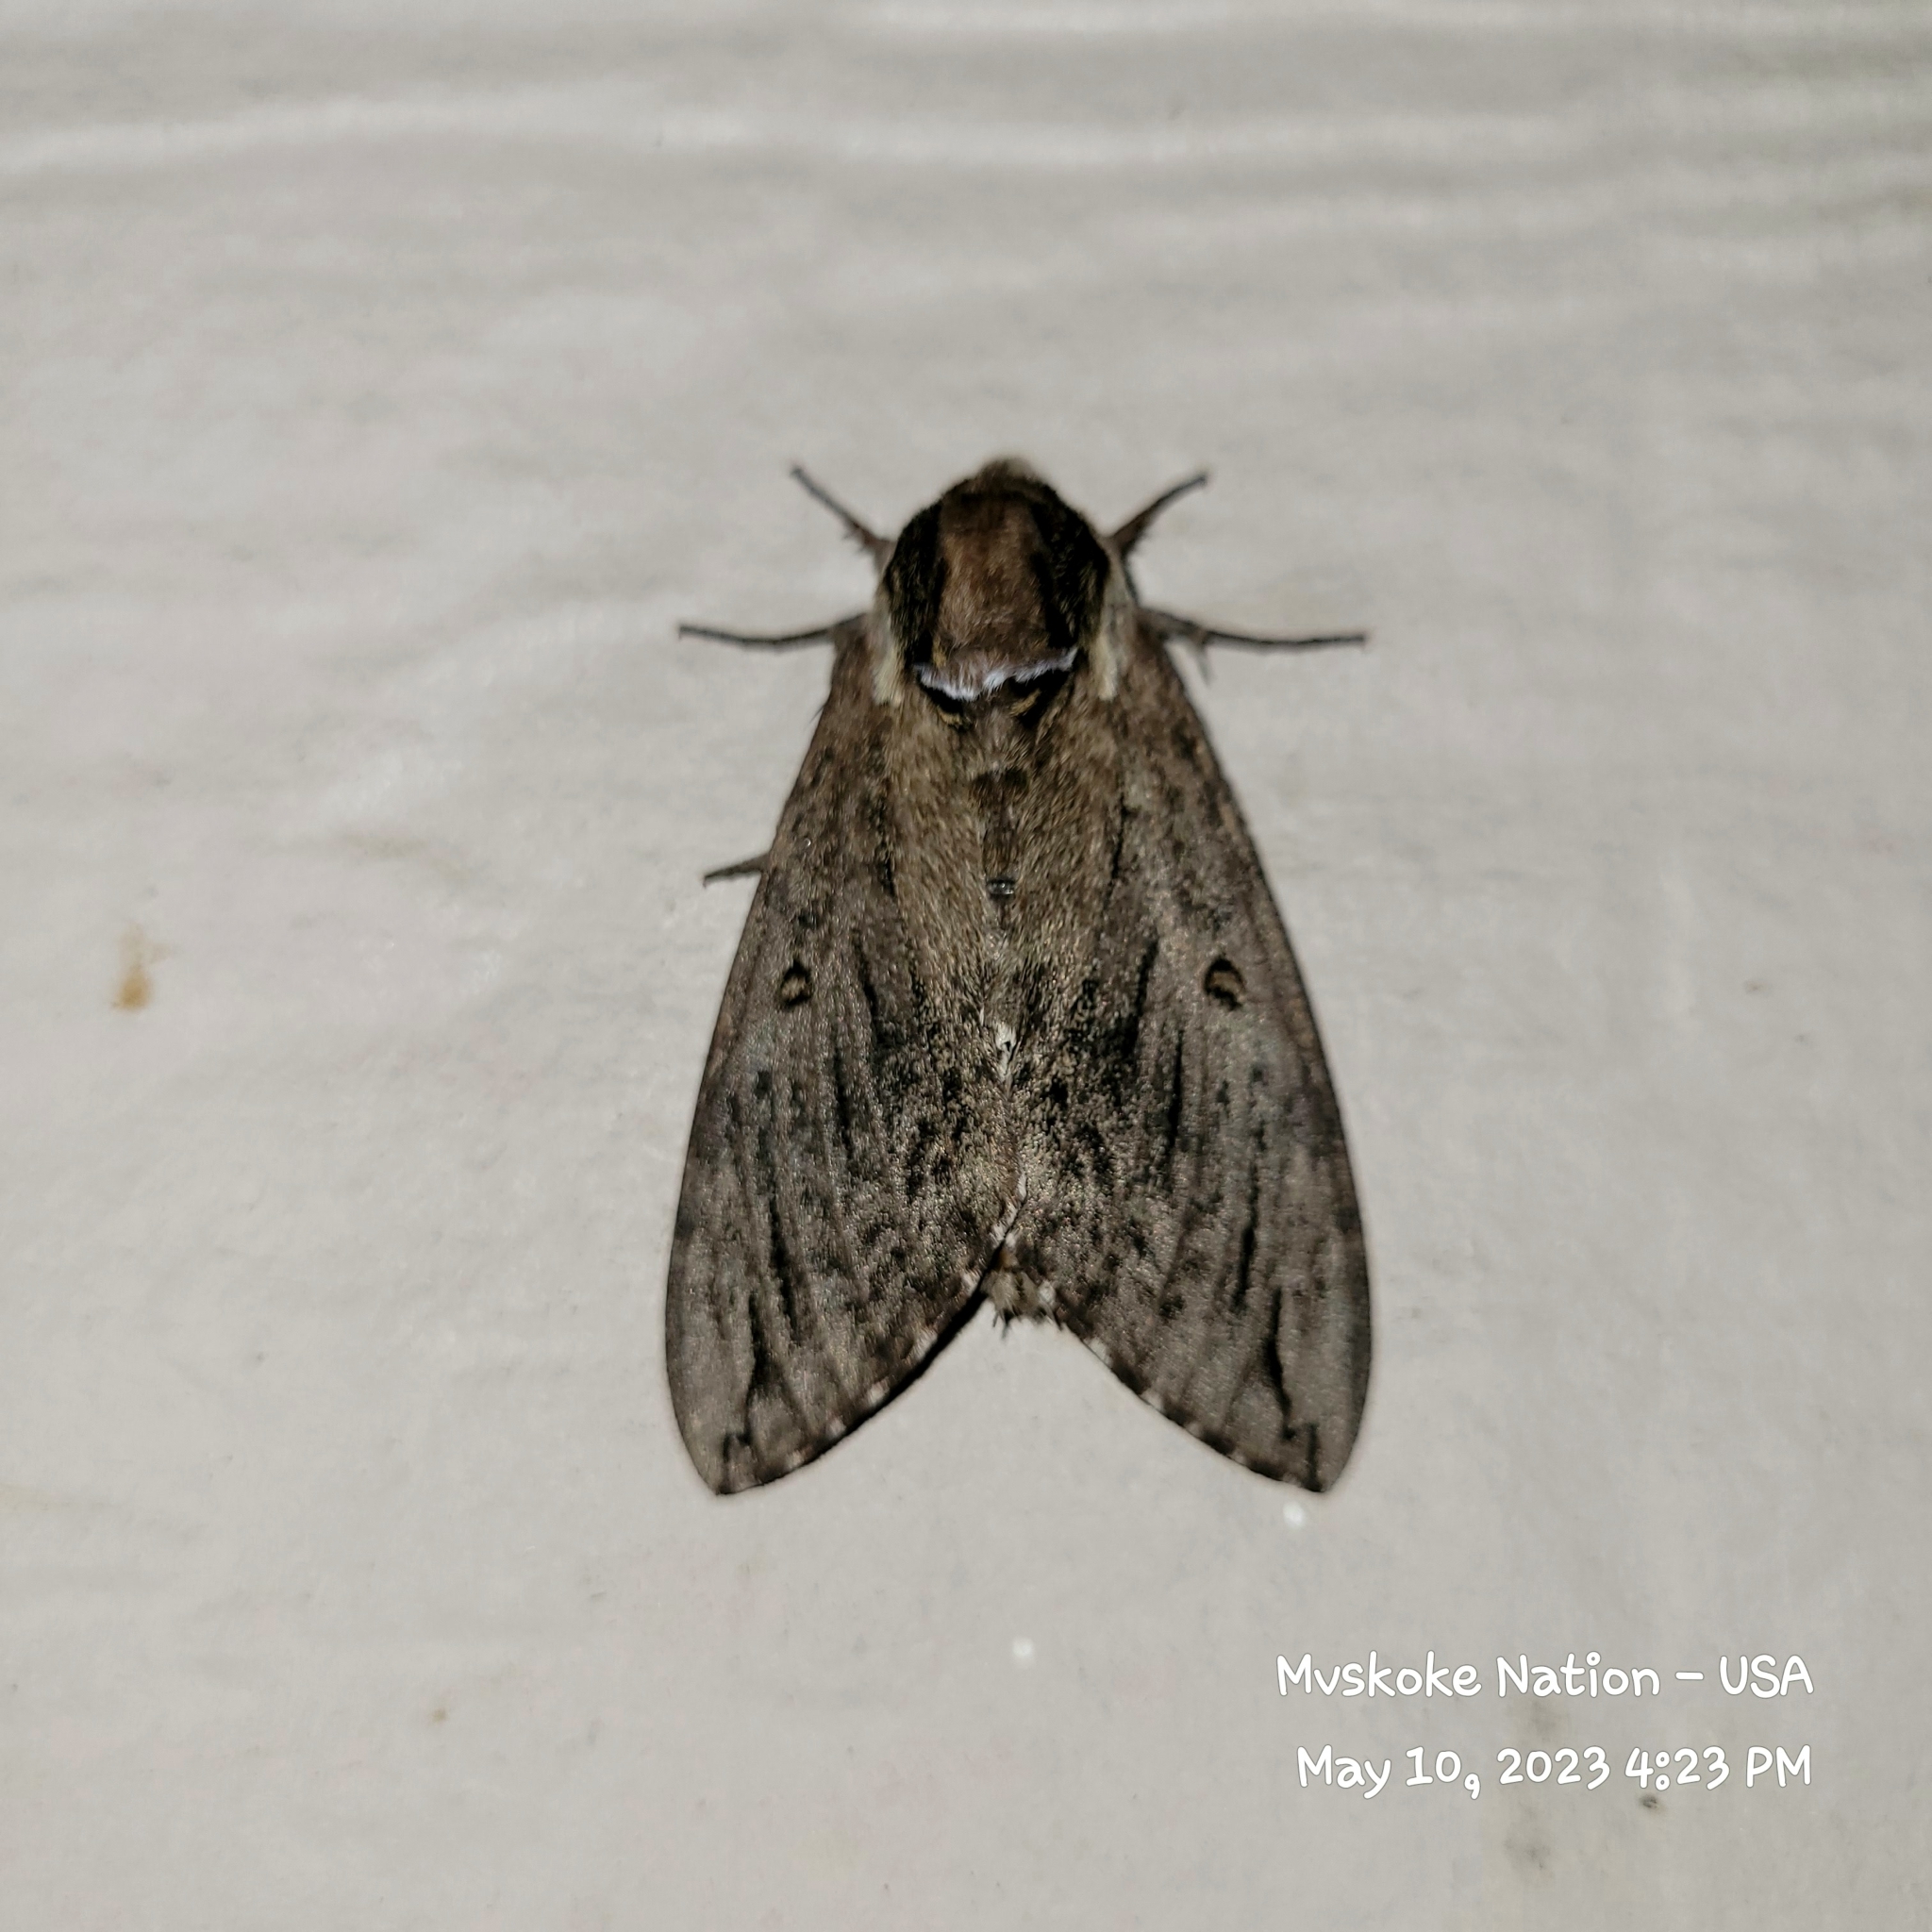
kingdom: Animalia
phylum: Arthropoda
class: Insecta
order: Lepidoptera
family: Sphingidae
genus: Ceratomia
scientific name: Ceratomia catalpae
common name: Catalpa hornworm
